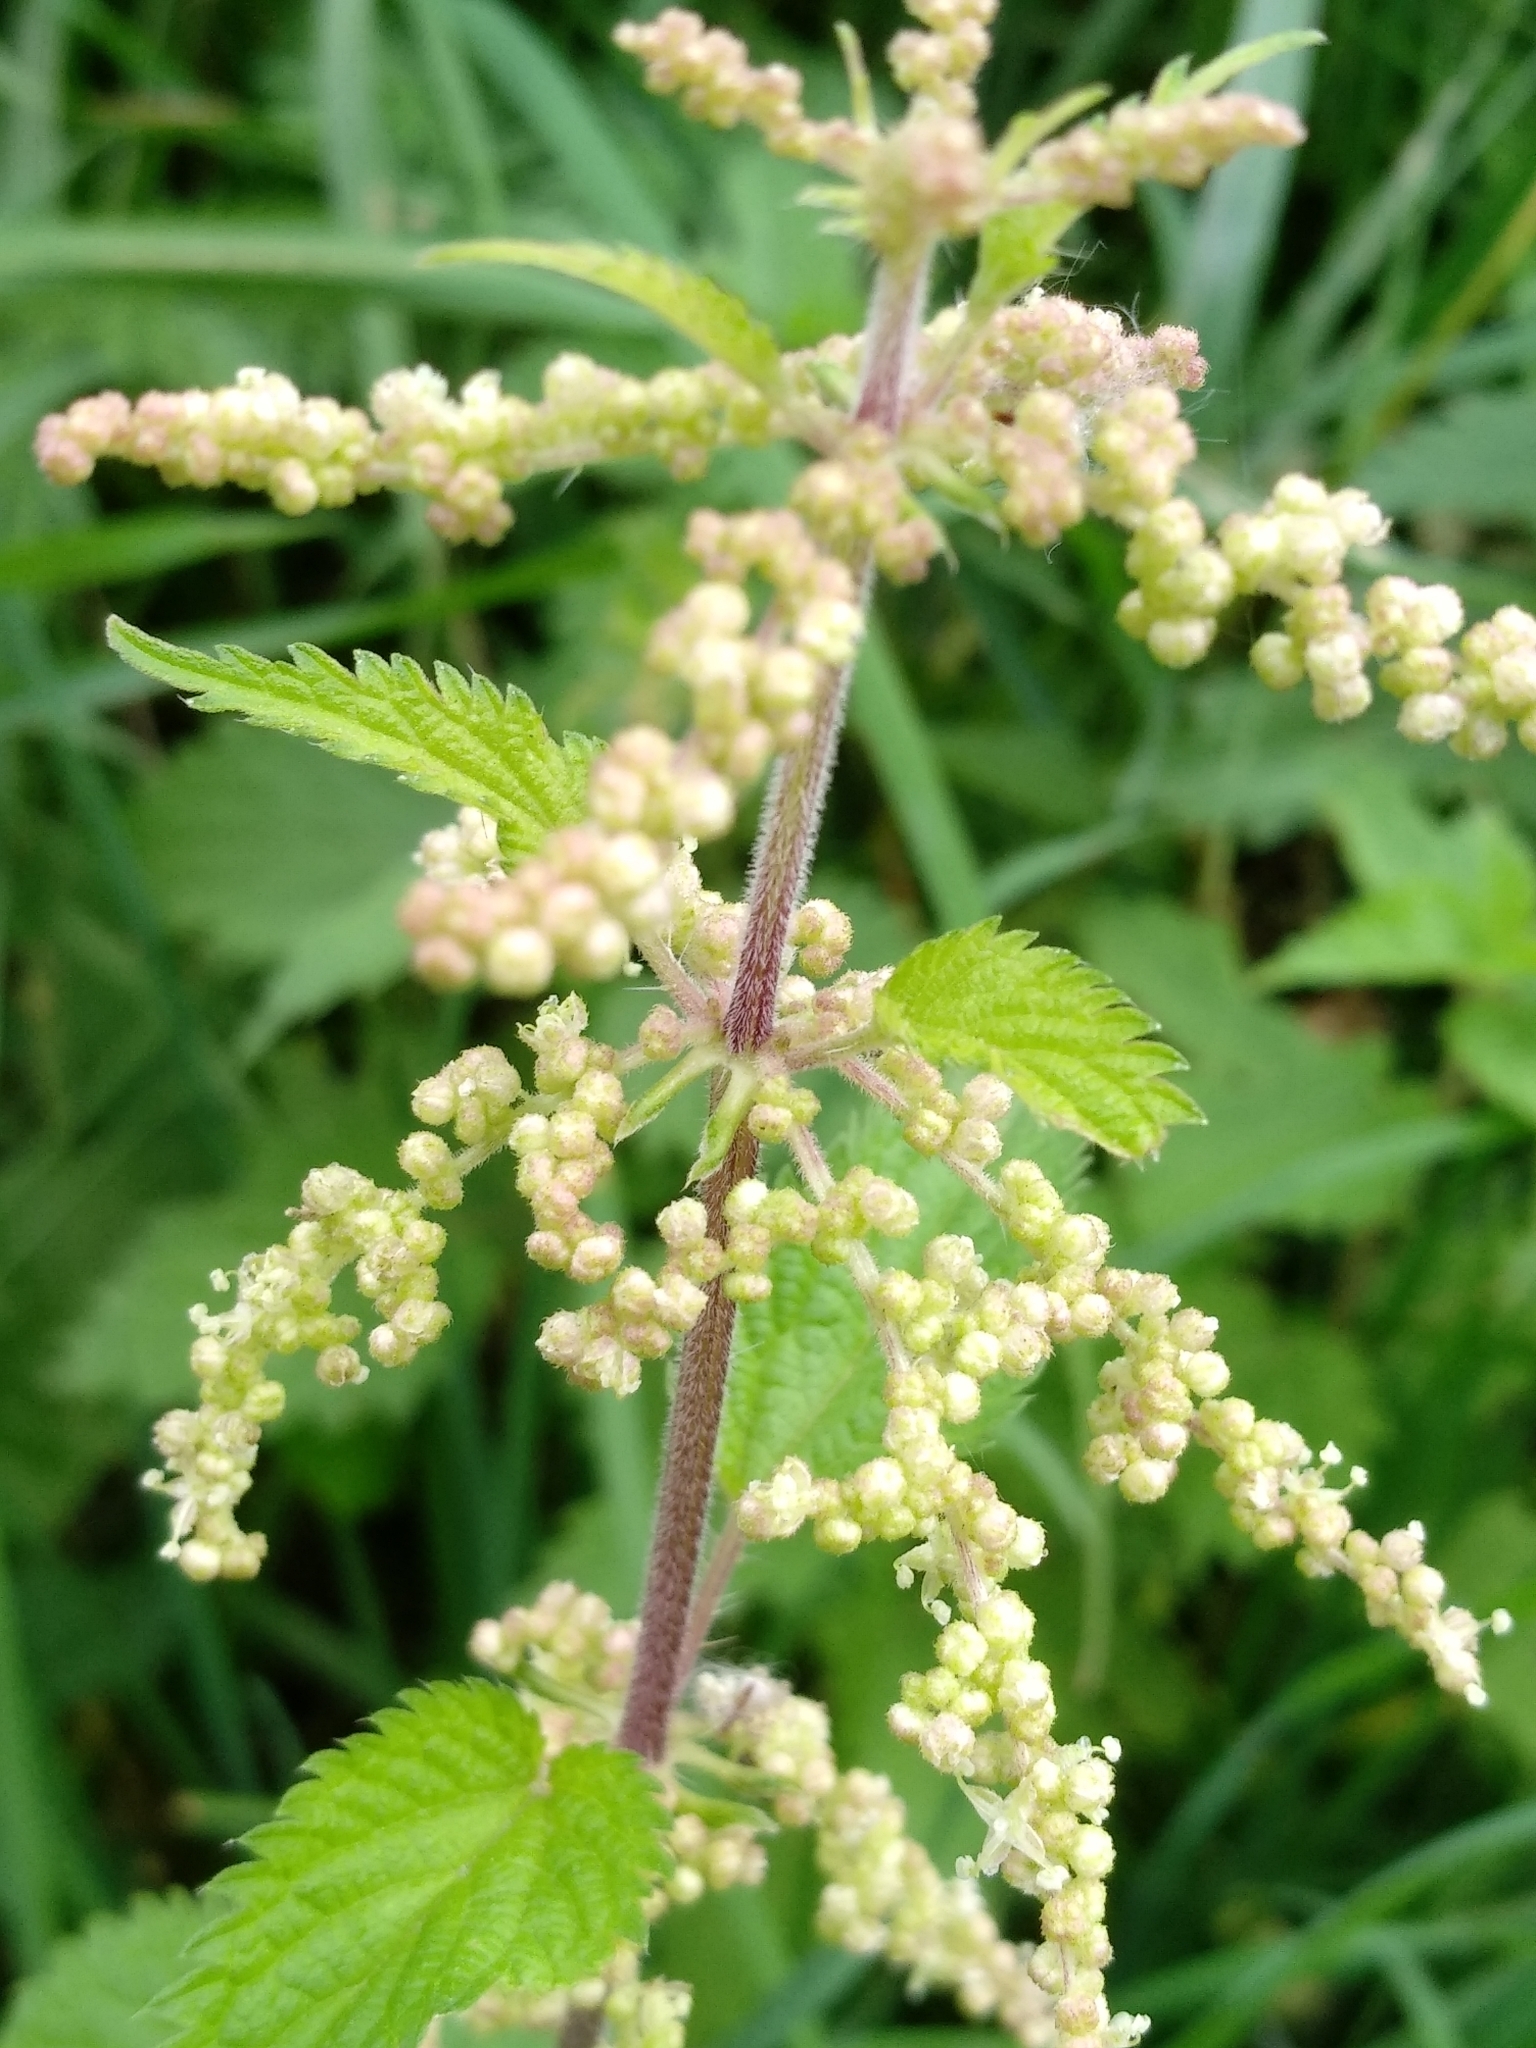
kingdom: Plantae
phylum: Tracheophyta
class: Magnoliopsida
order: Rosales
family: Urticaceae
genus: Urtica
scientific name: Urtica dioica
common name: Common nettle
